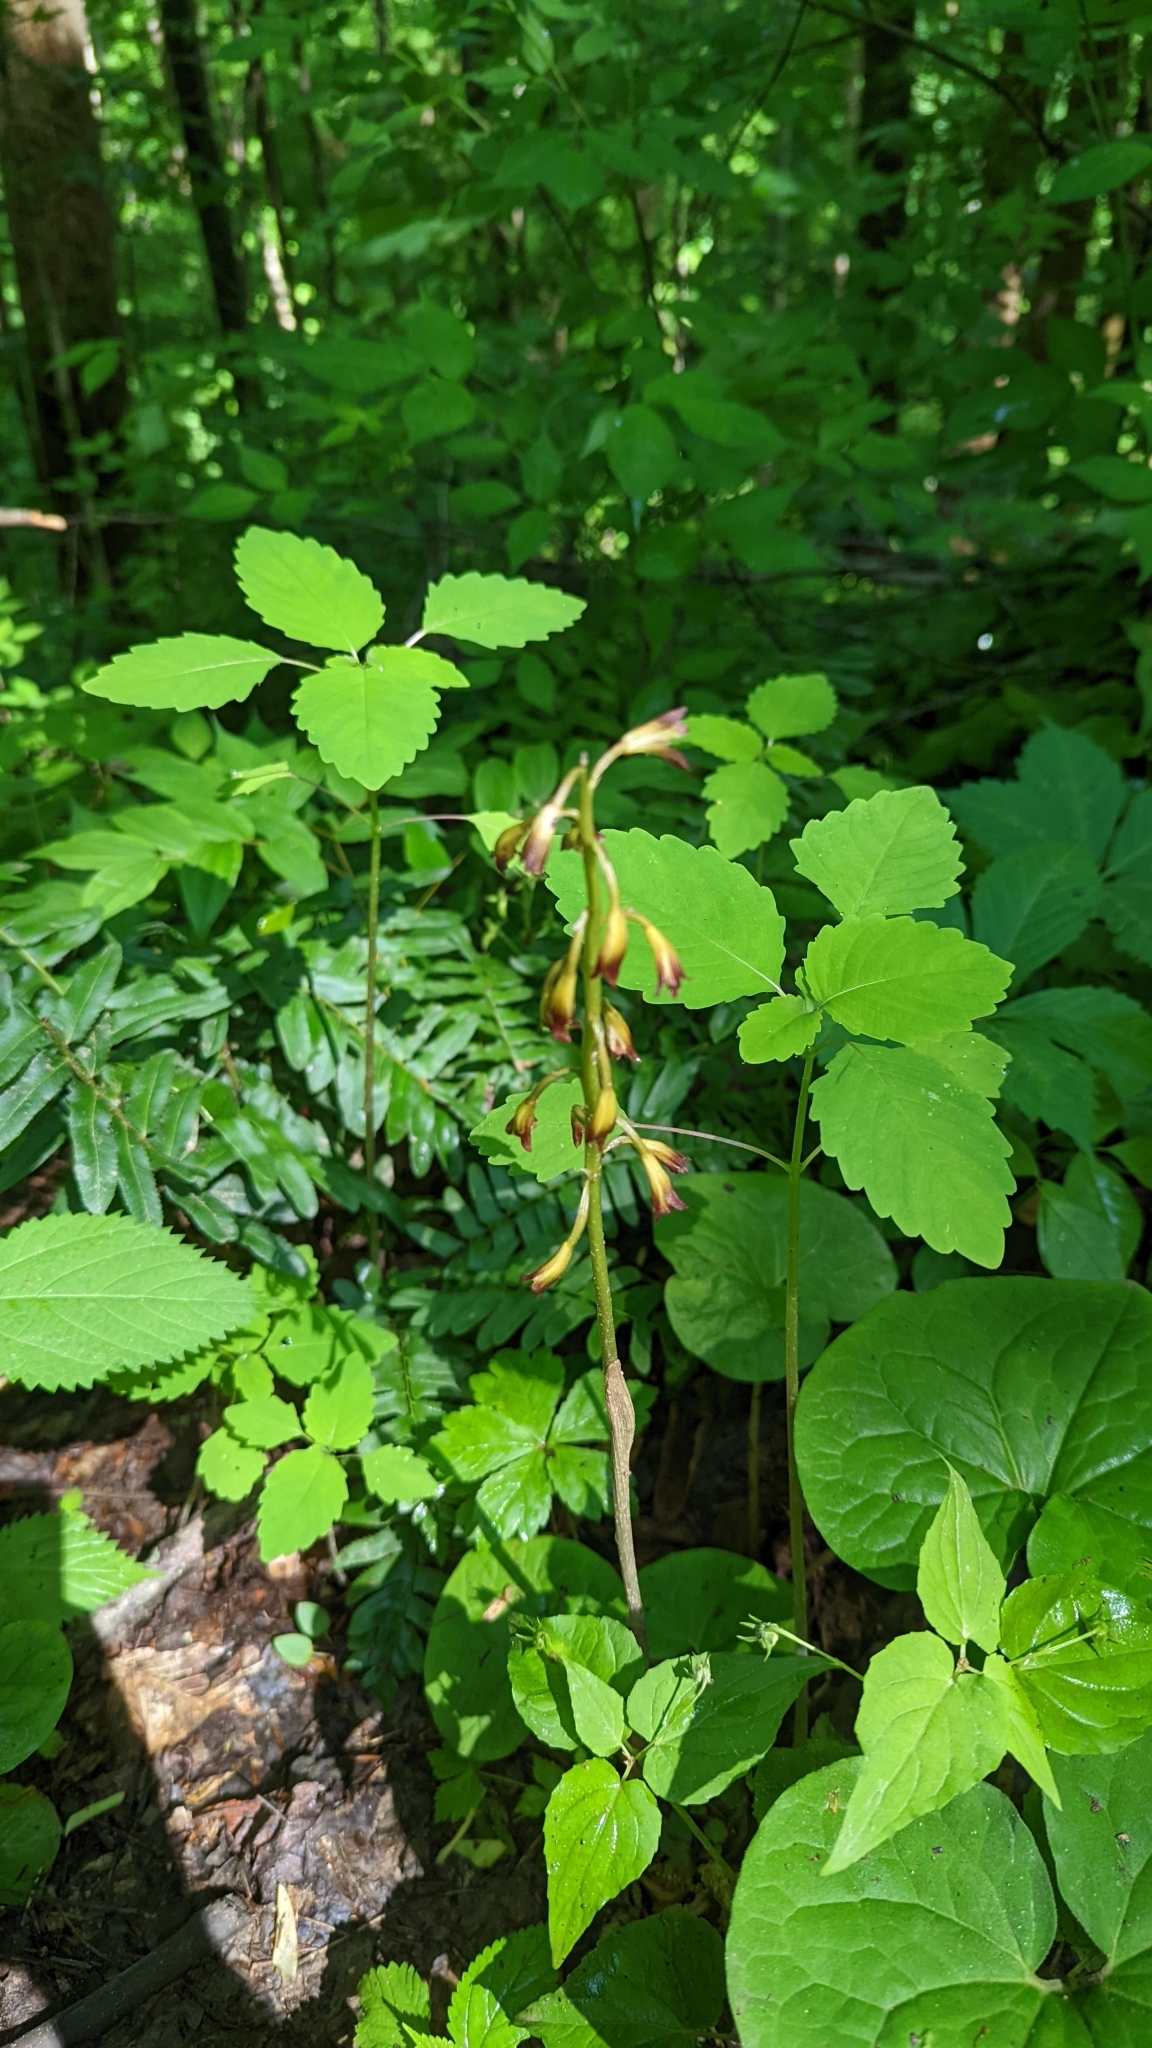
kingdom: Plantae
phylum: Tracheophyta
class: Liliopsida
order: Asparagales
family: Orchidaceae
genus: Aplectrum
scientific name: Aplectrum hyemale
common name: Adam-and-eve
